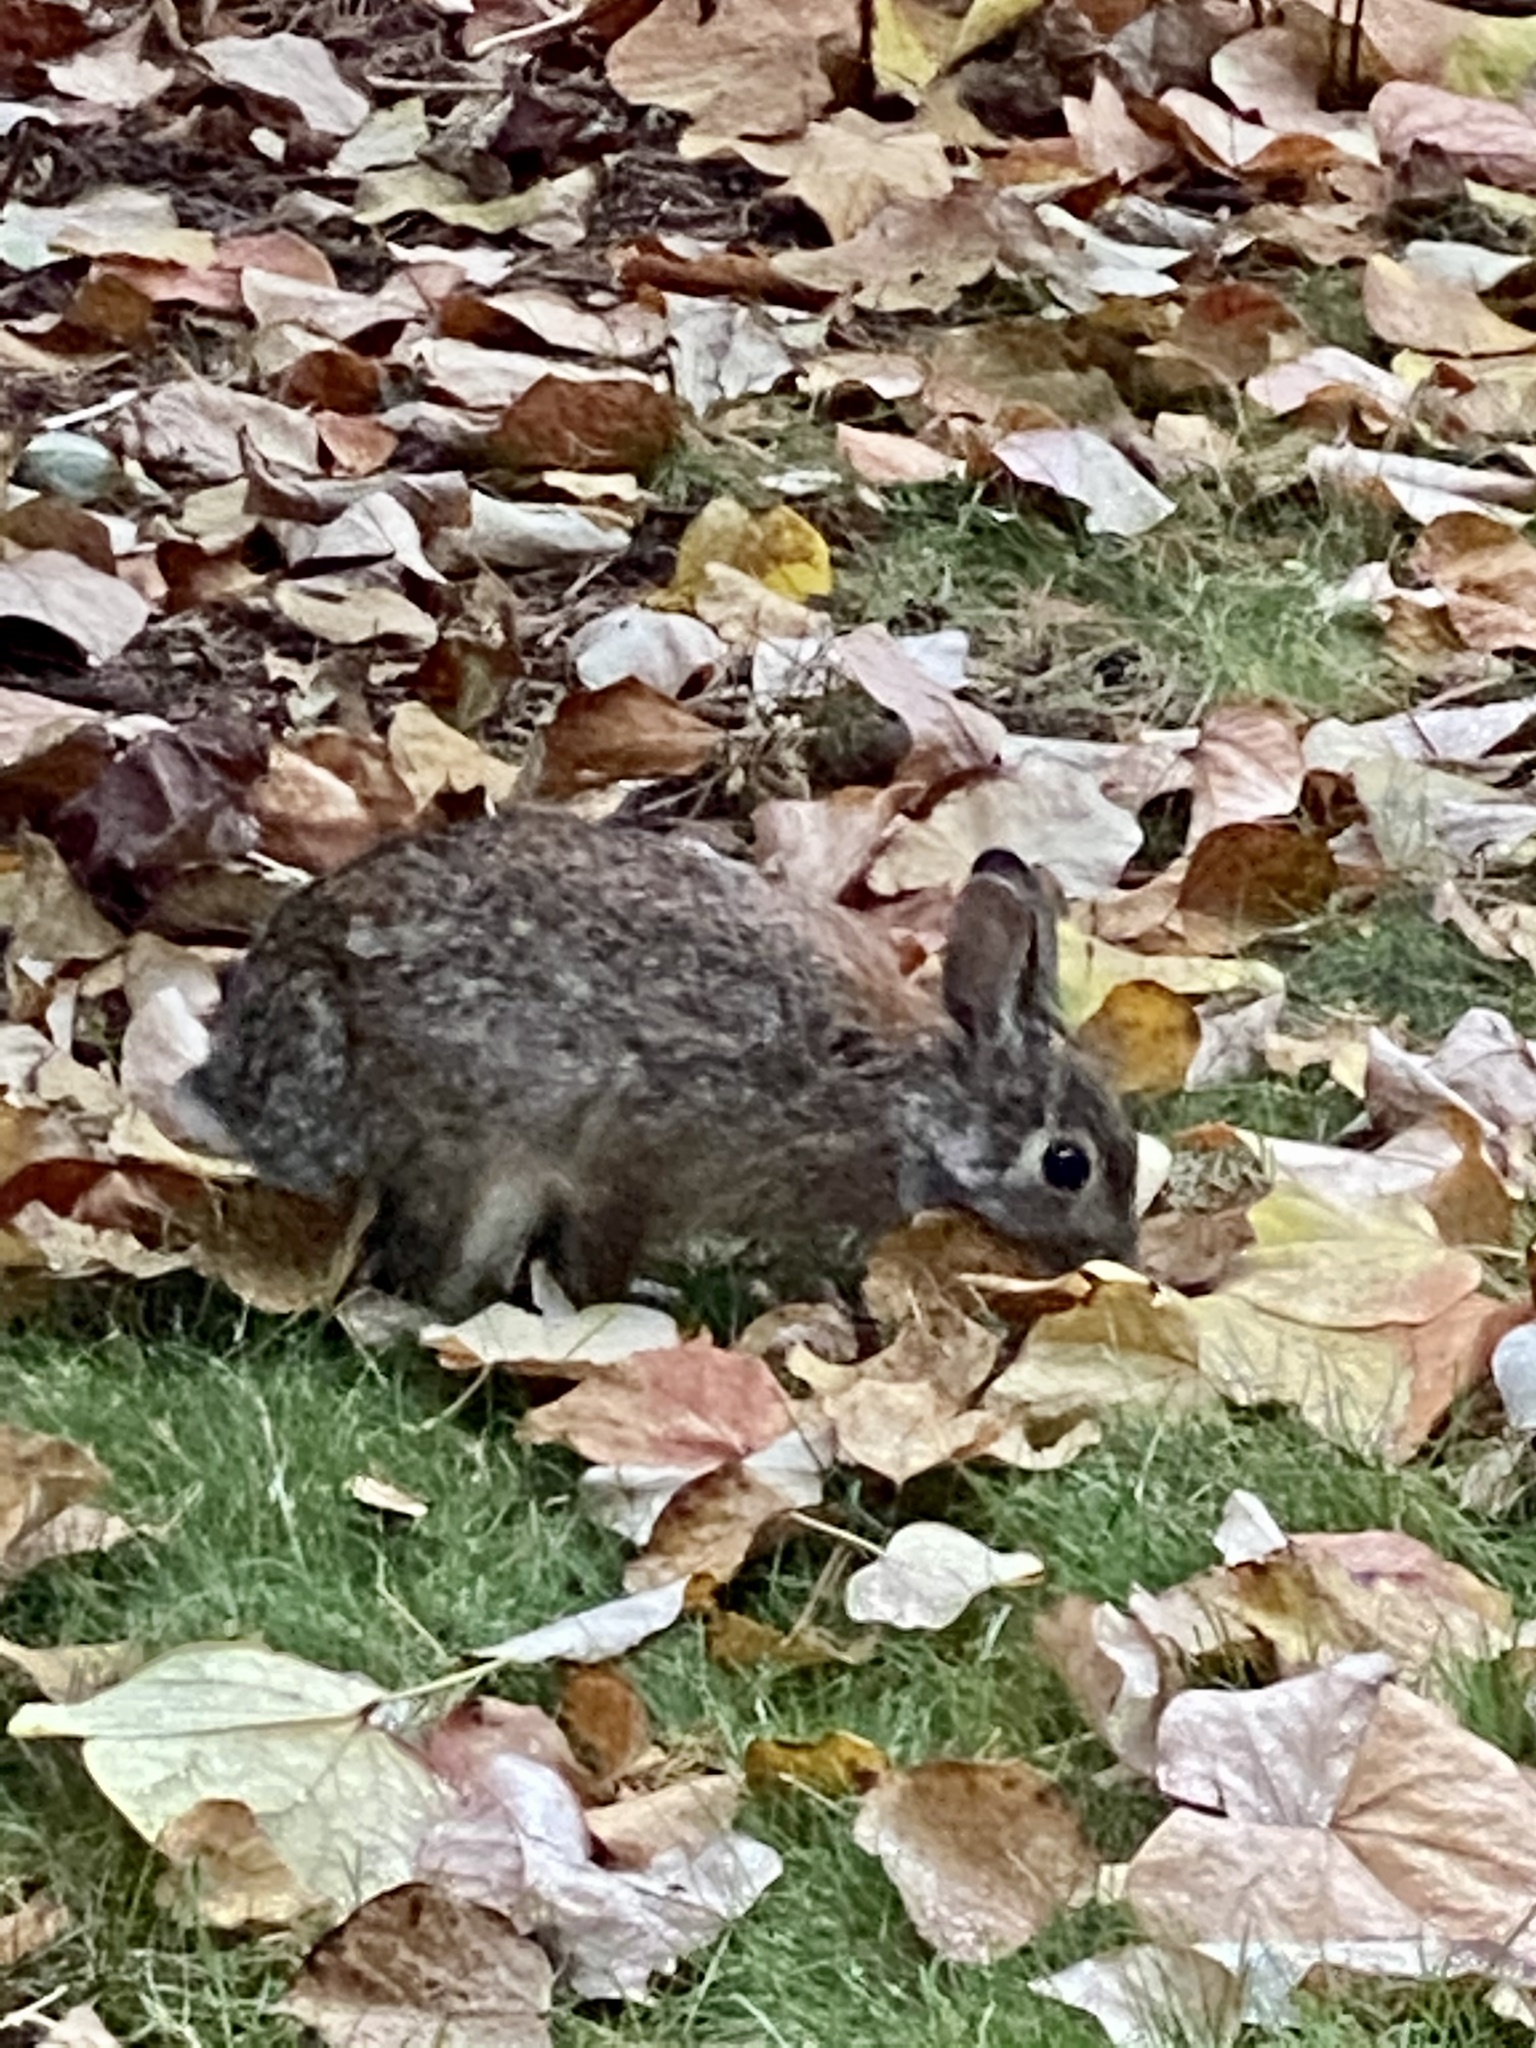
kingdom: Animalia
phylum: Chordata
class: Mammalia
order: Lagomorpha
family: Leporidae
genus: Sylvilagus
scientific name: Sylvilagus floridanus
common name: Eastern cottontail
